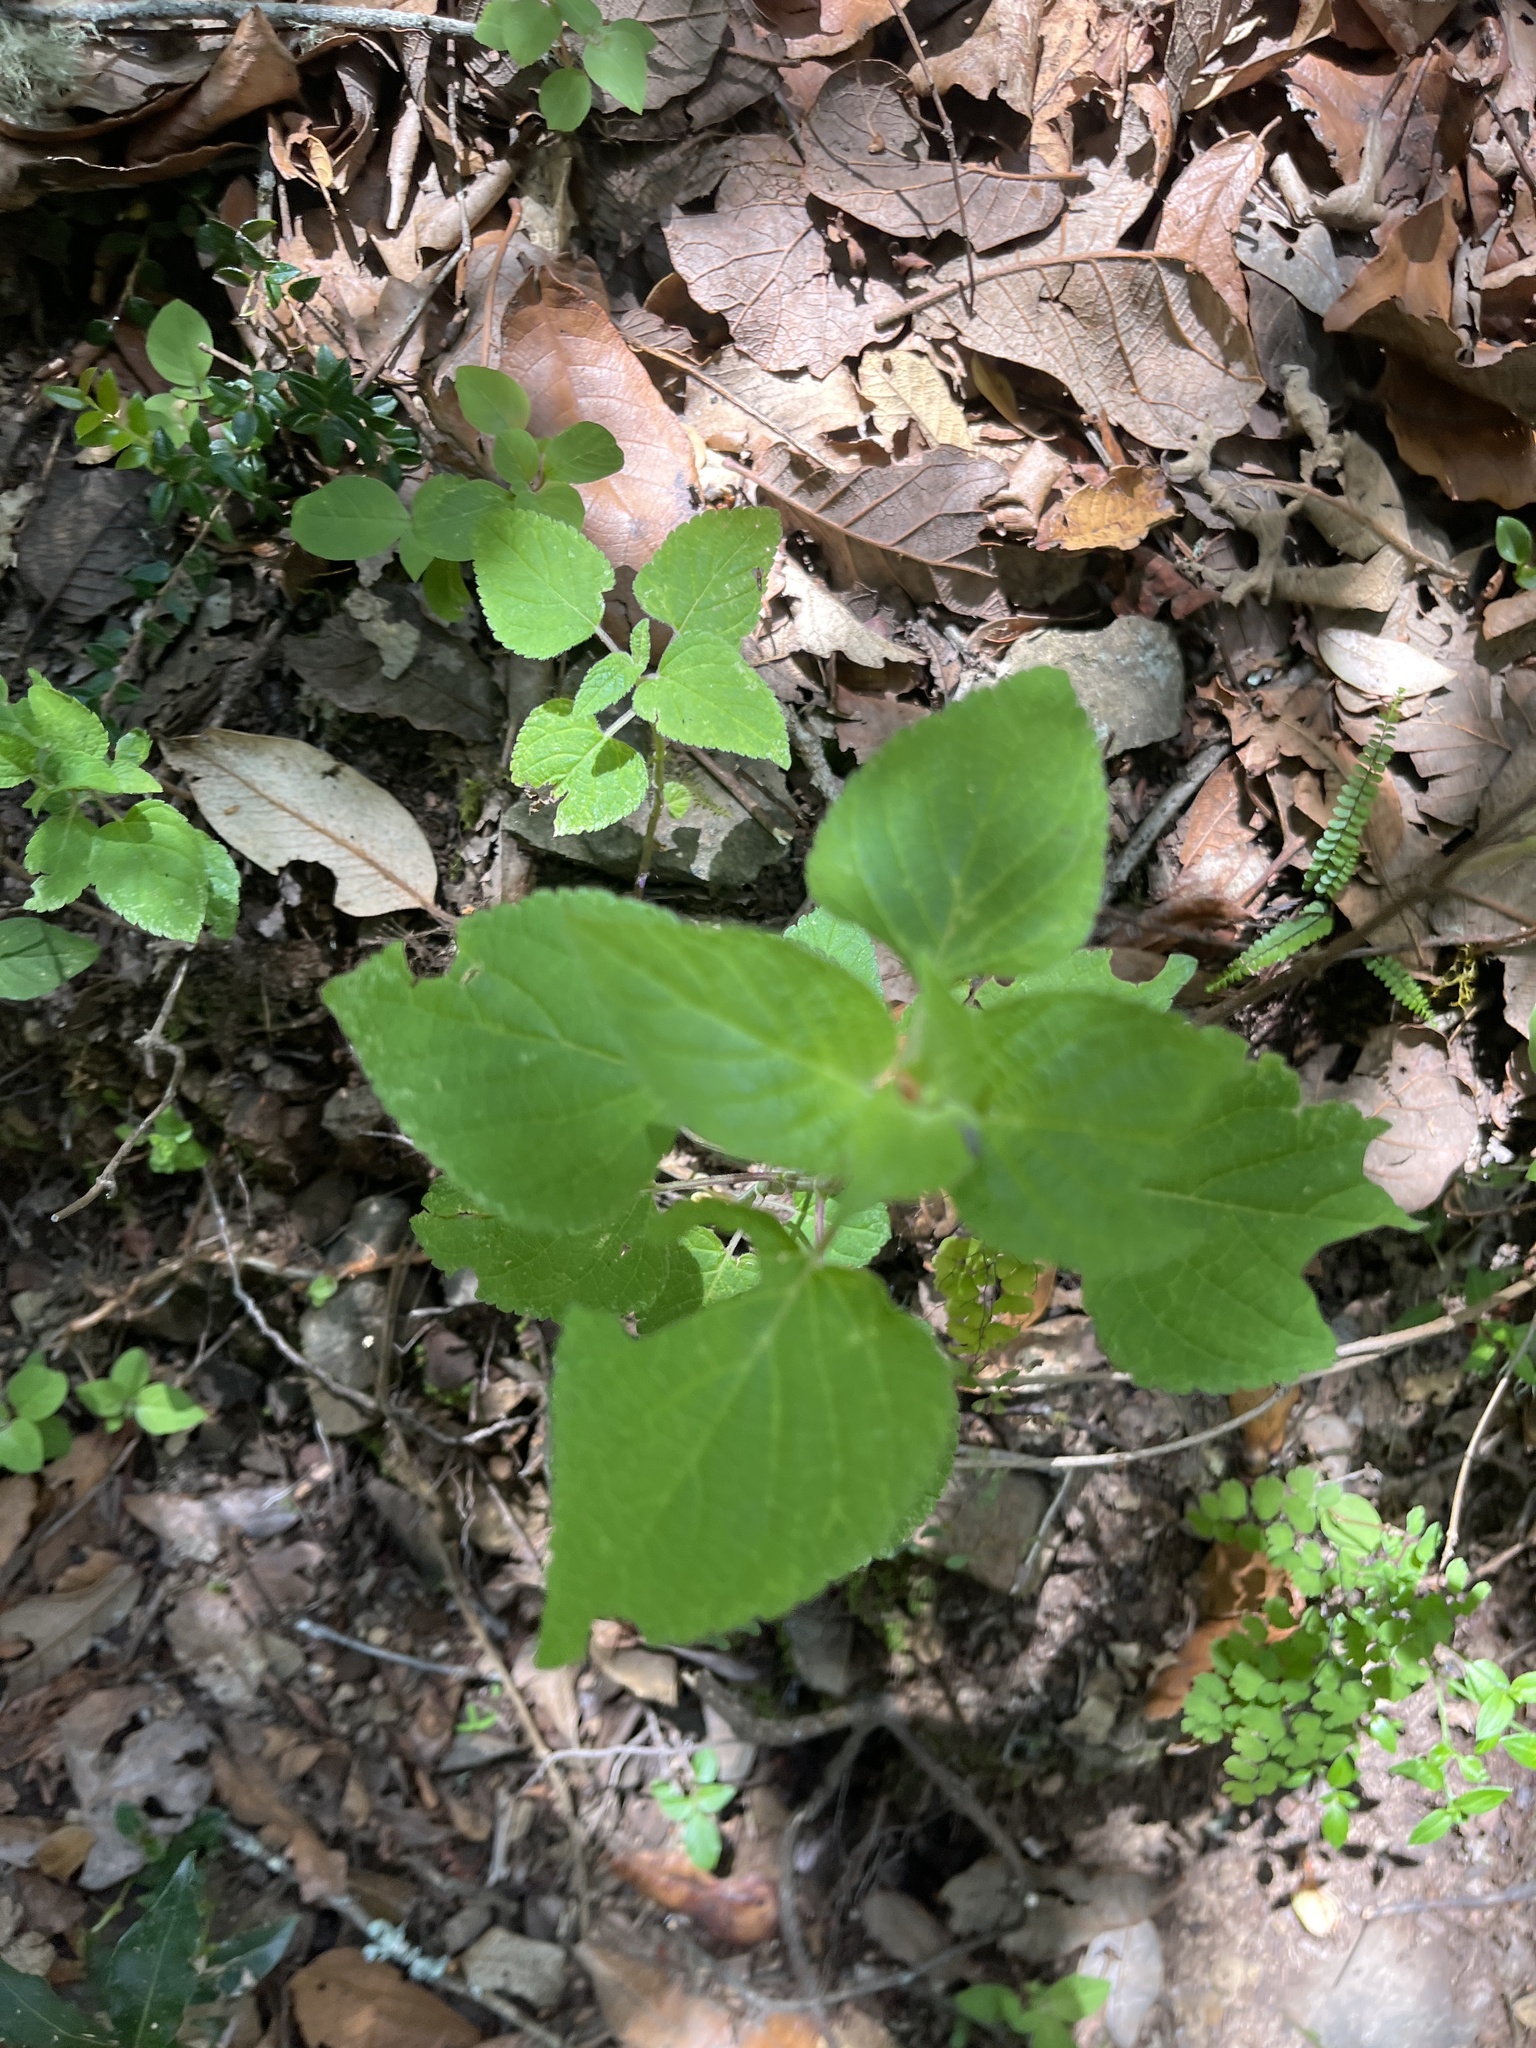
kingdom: Plantae
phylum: Tracheophyta
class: Magnoliopsida
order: Lamiales
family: Lamiaceae
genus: Salvia
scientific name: Salvia elegans
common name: Pineapple sage
